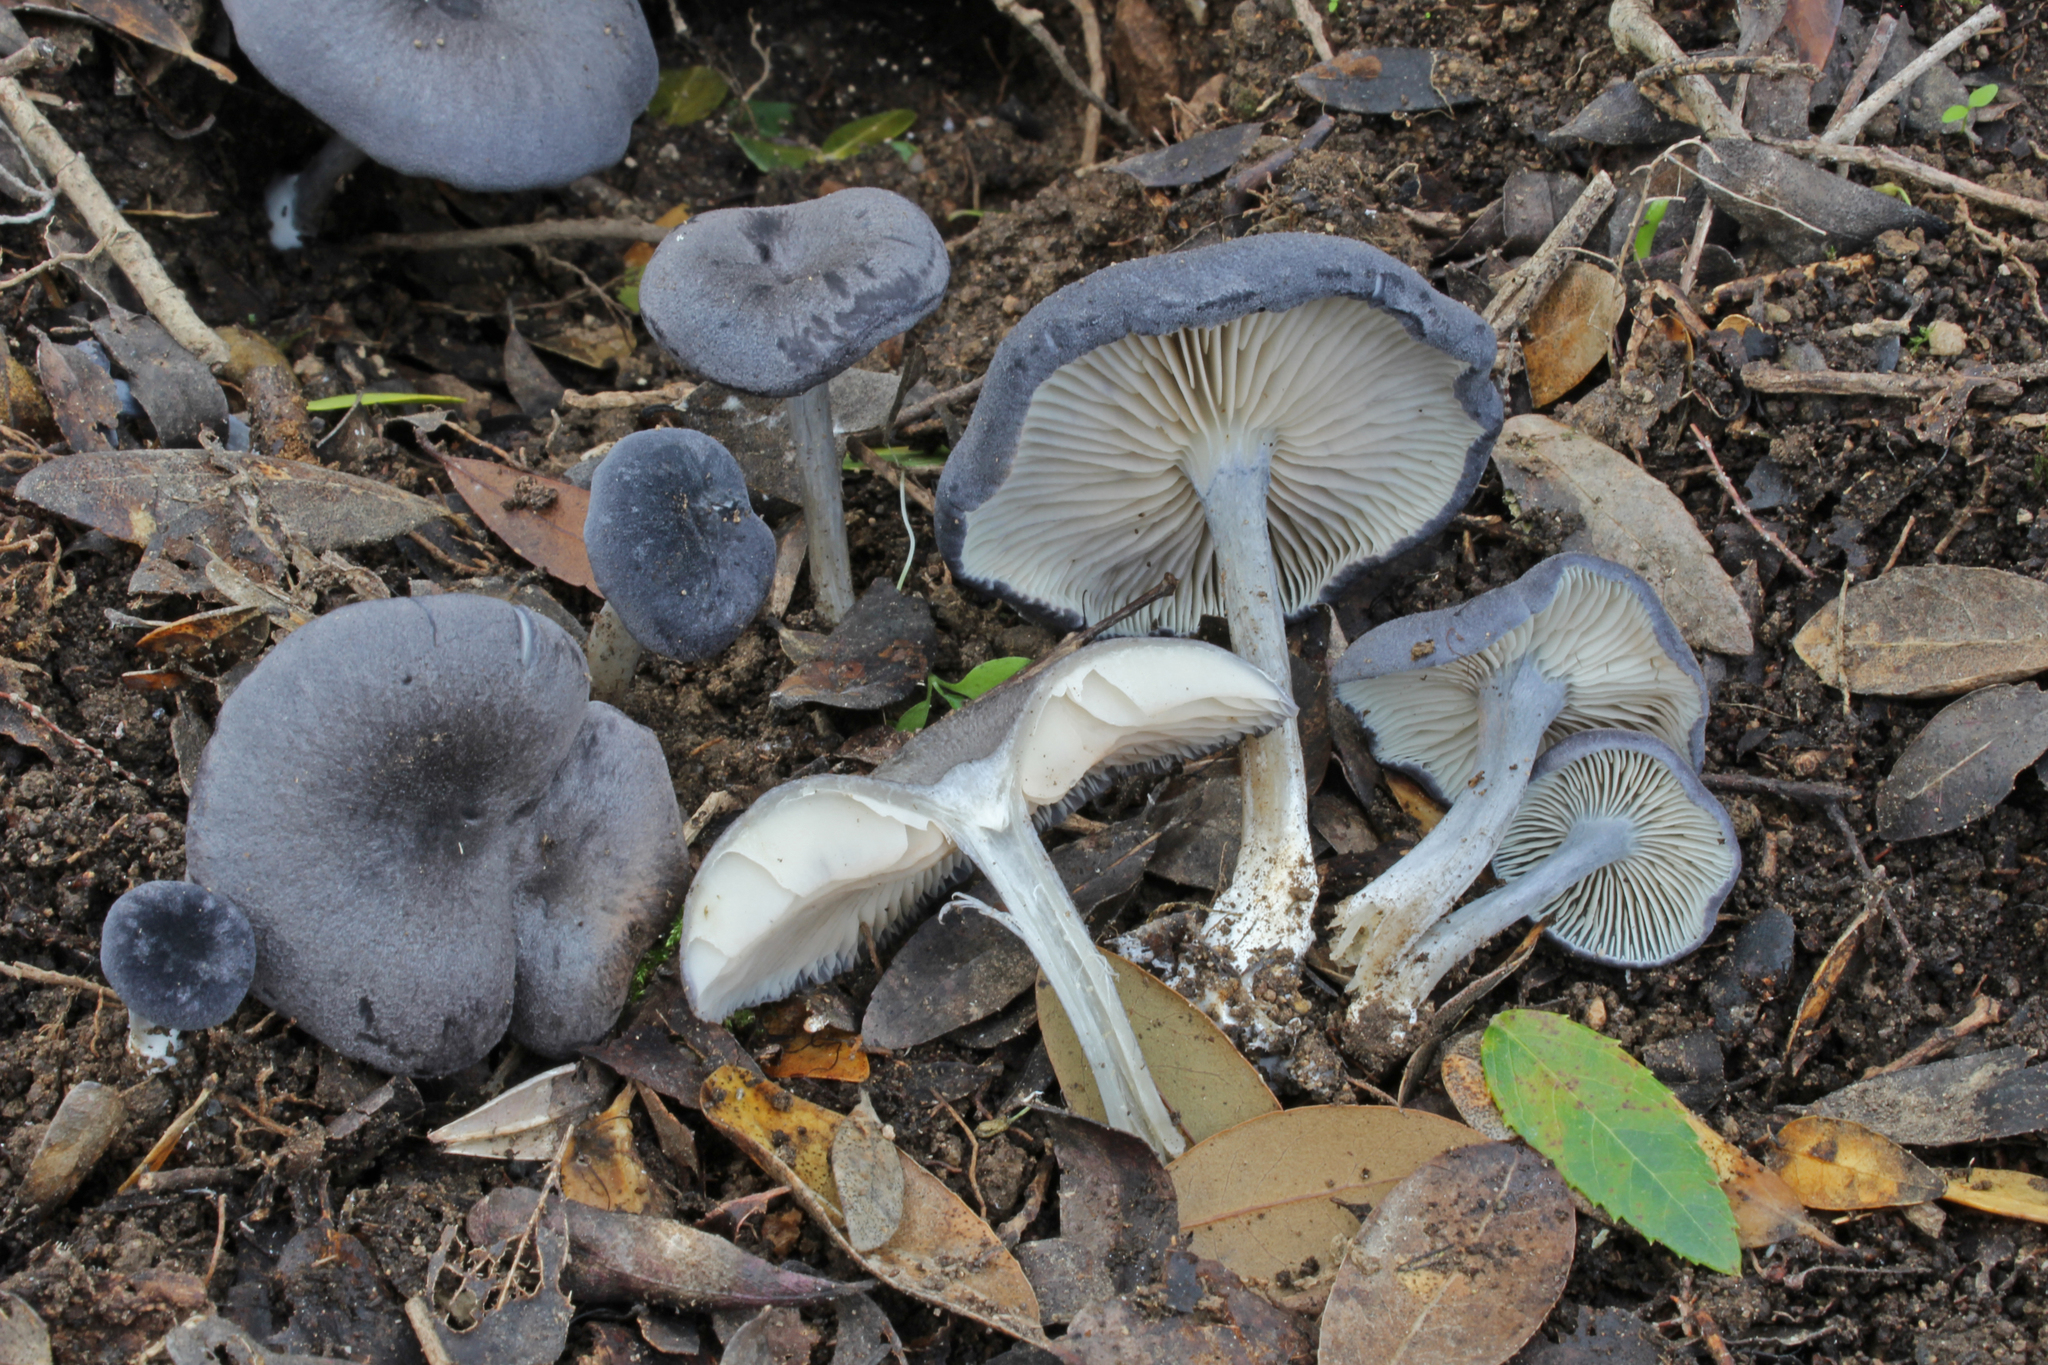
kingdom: Fungi
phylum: Basidiomycota
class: Agaricomycetes
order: Agaricales
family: Entolomataceae
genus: Entoloma
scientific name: Entoloma mougeotii
